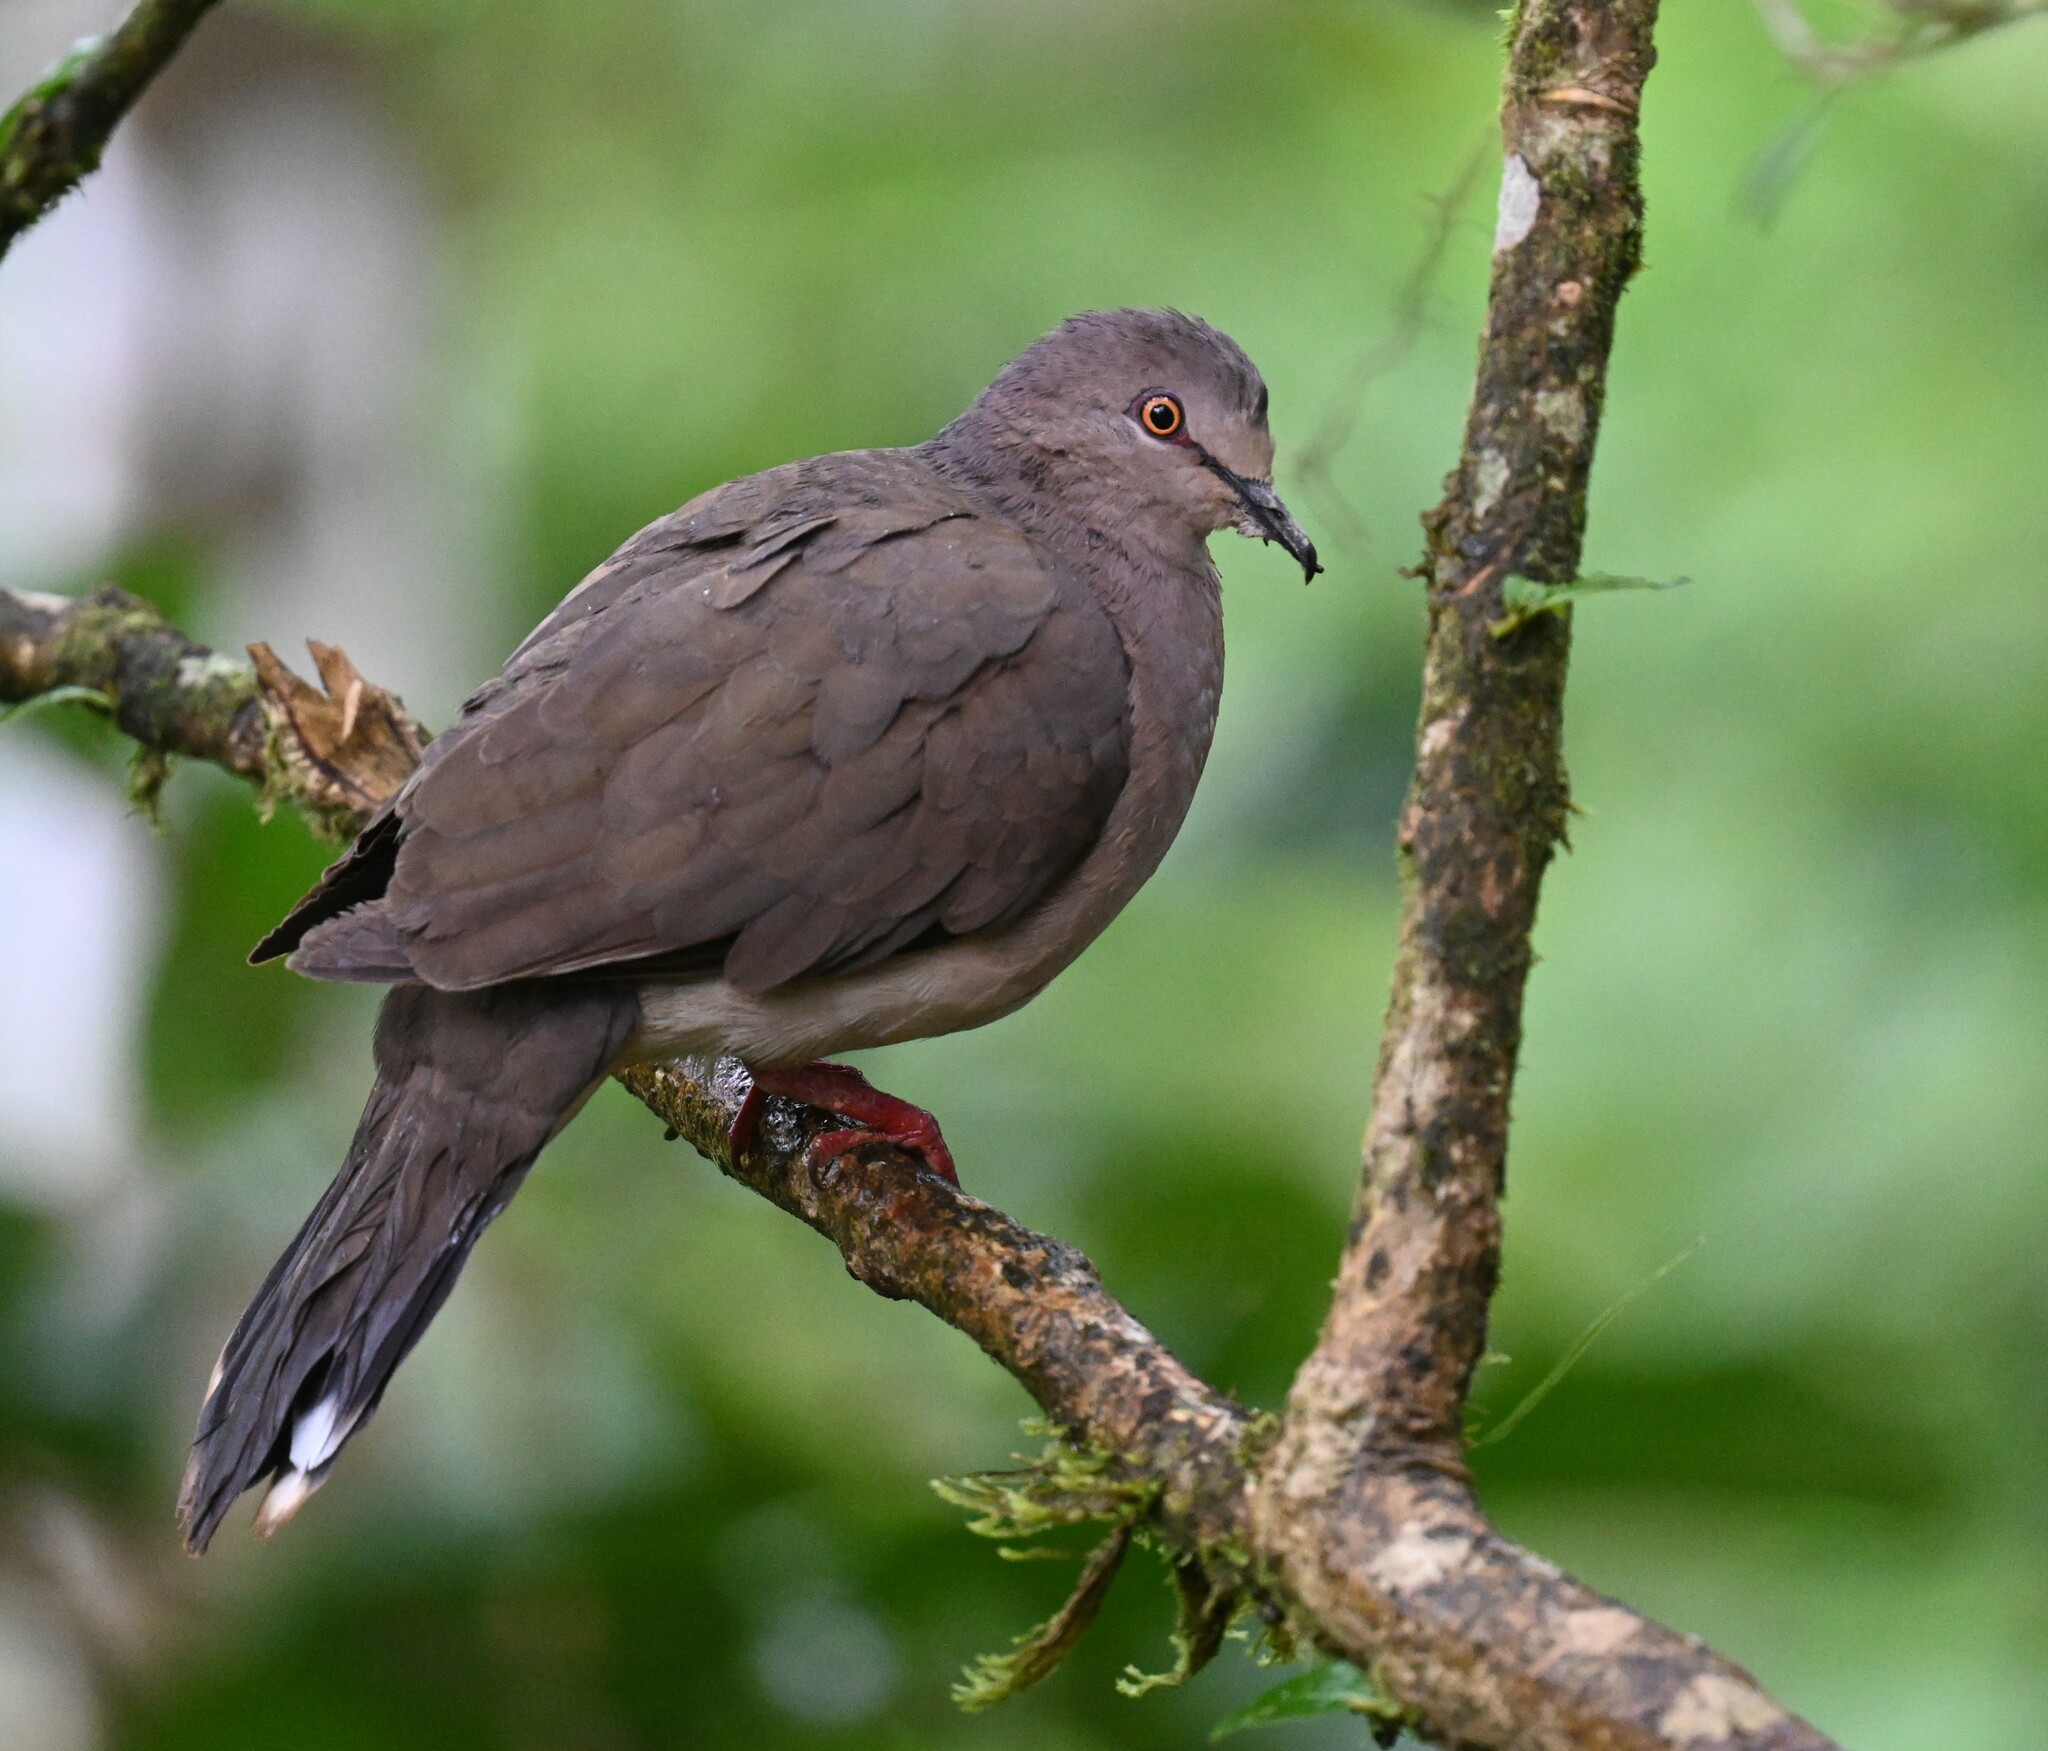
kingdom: Animalia
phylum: Chordata
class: Aves
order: Columbiformes
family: Columbidae
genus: Leptotila
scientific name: Leptotila verreauxi
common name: White-tipped dove
